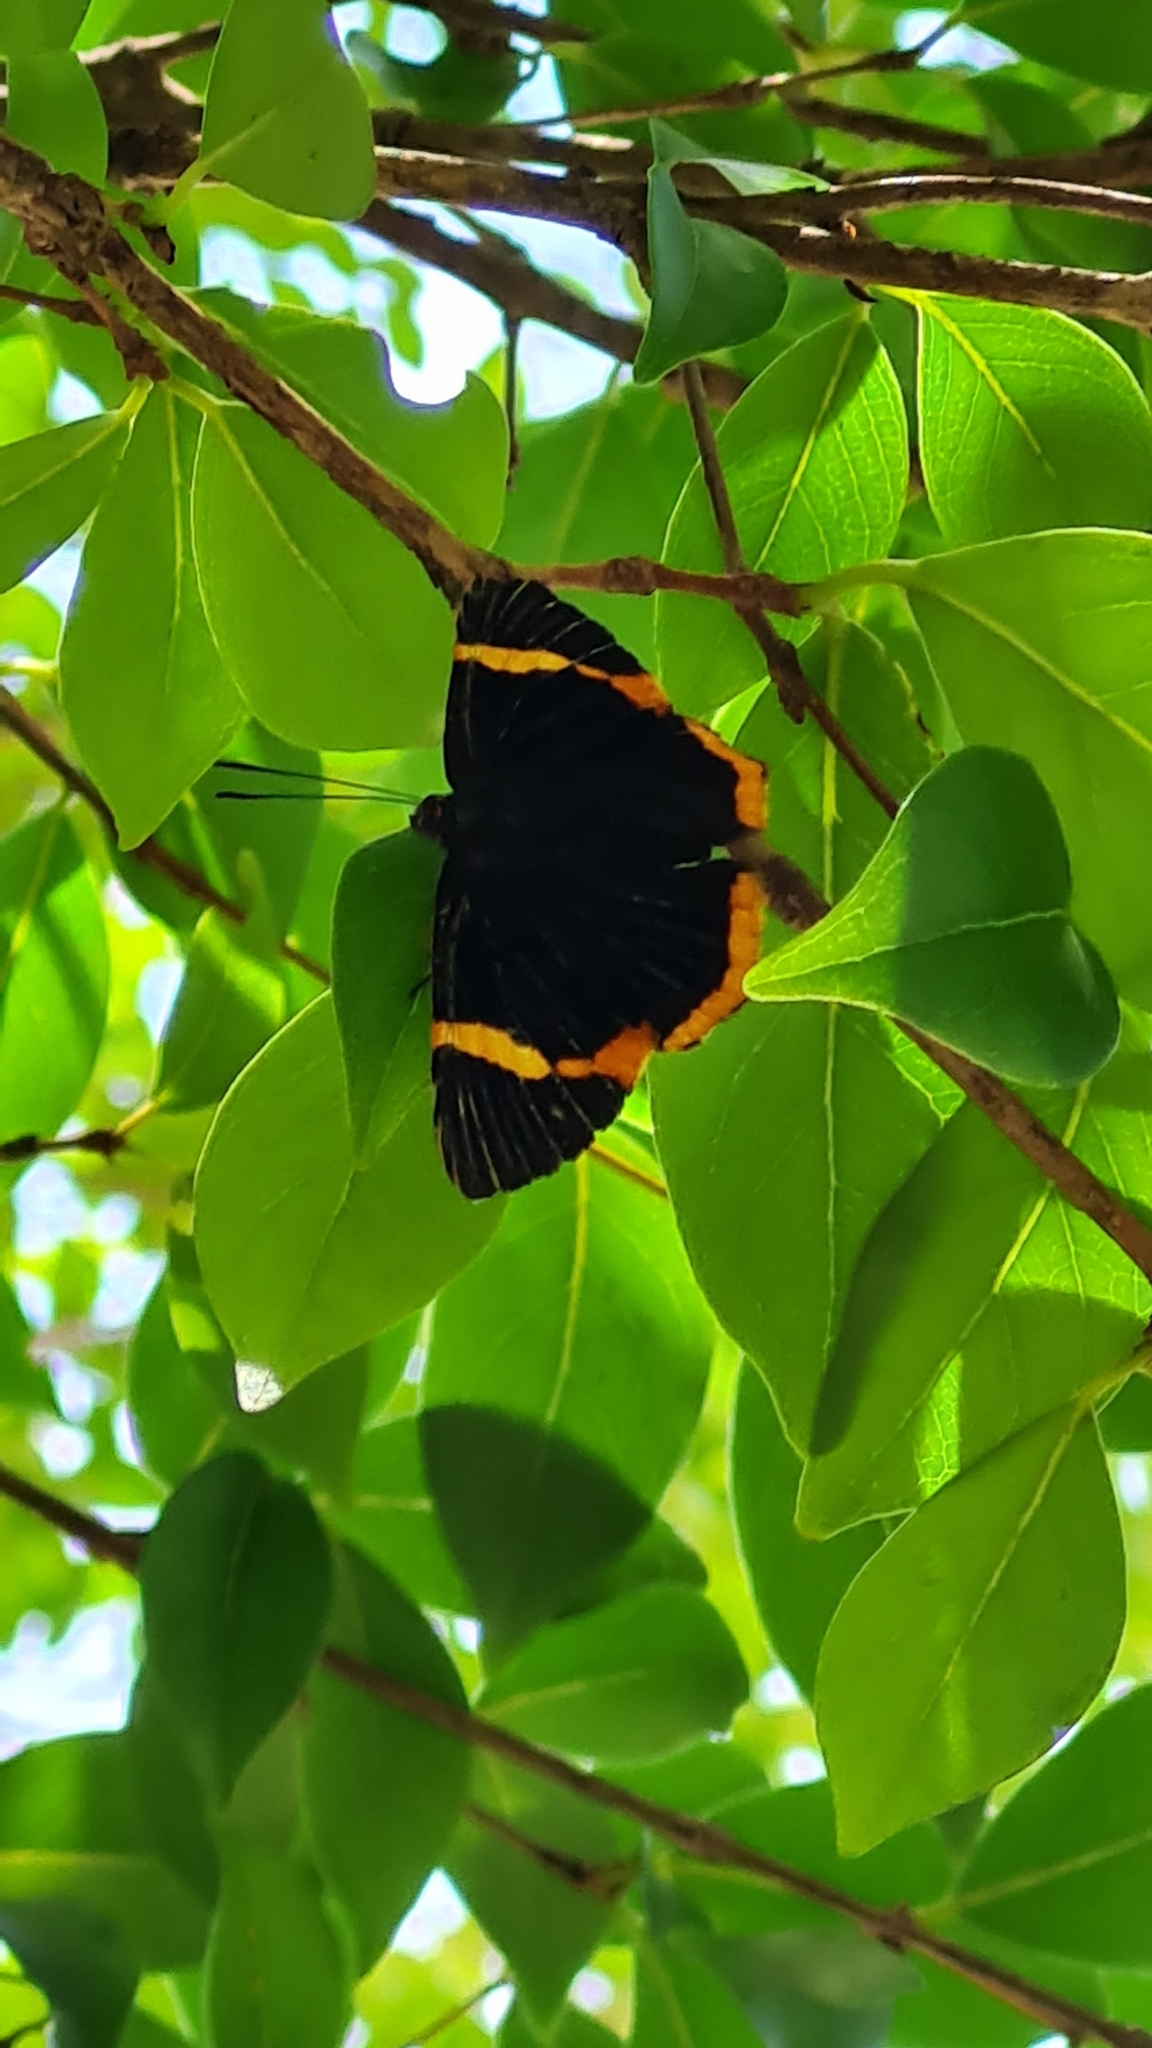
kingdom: Animalia
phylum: Arthropoda
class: Insecta
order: Lepidoptera
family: Riodinidae
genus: Riodina
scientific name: Riodina lycisca
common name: Lycisca metalmark
